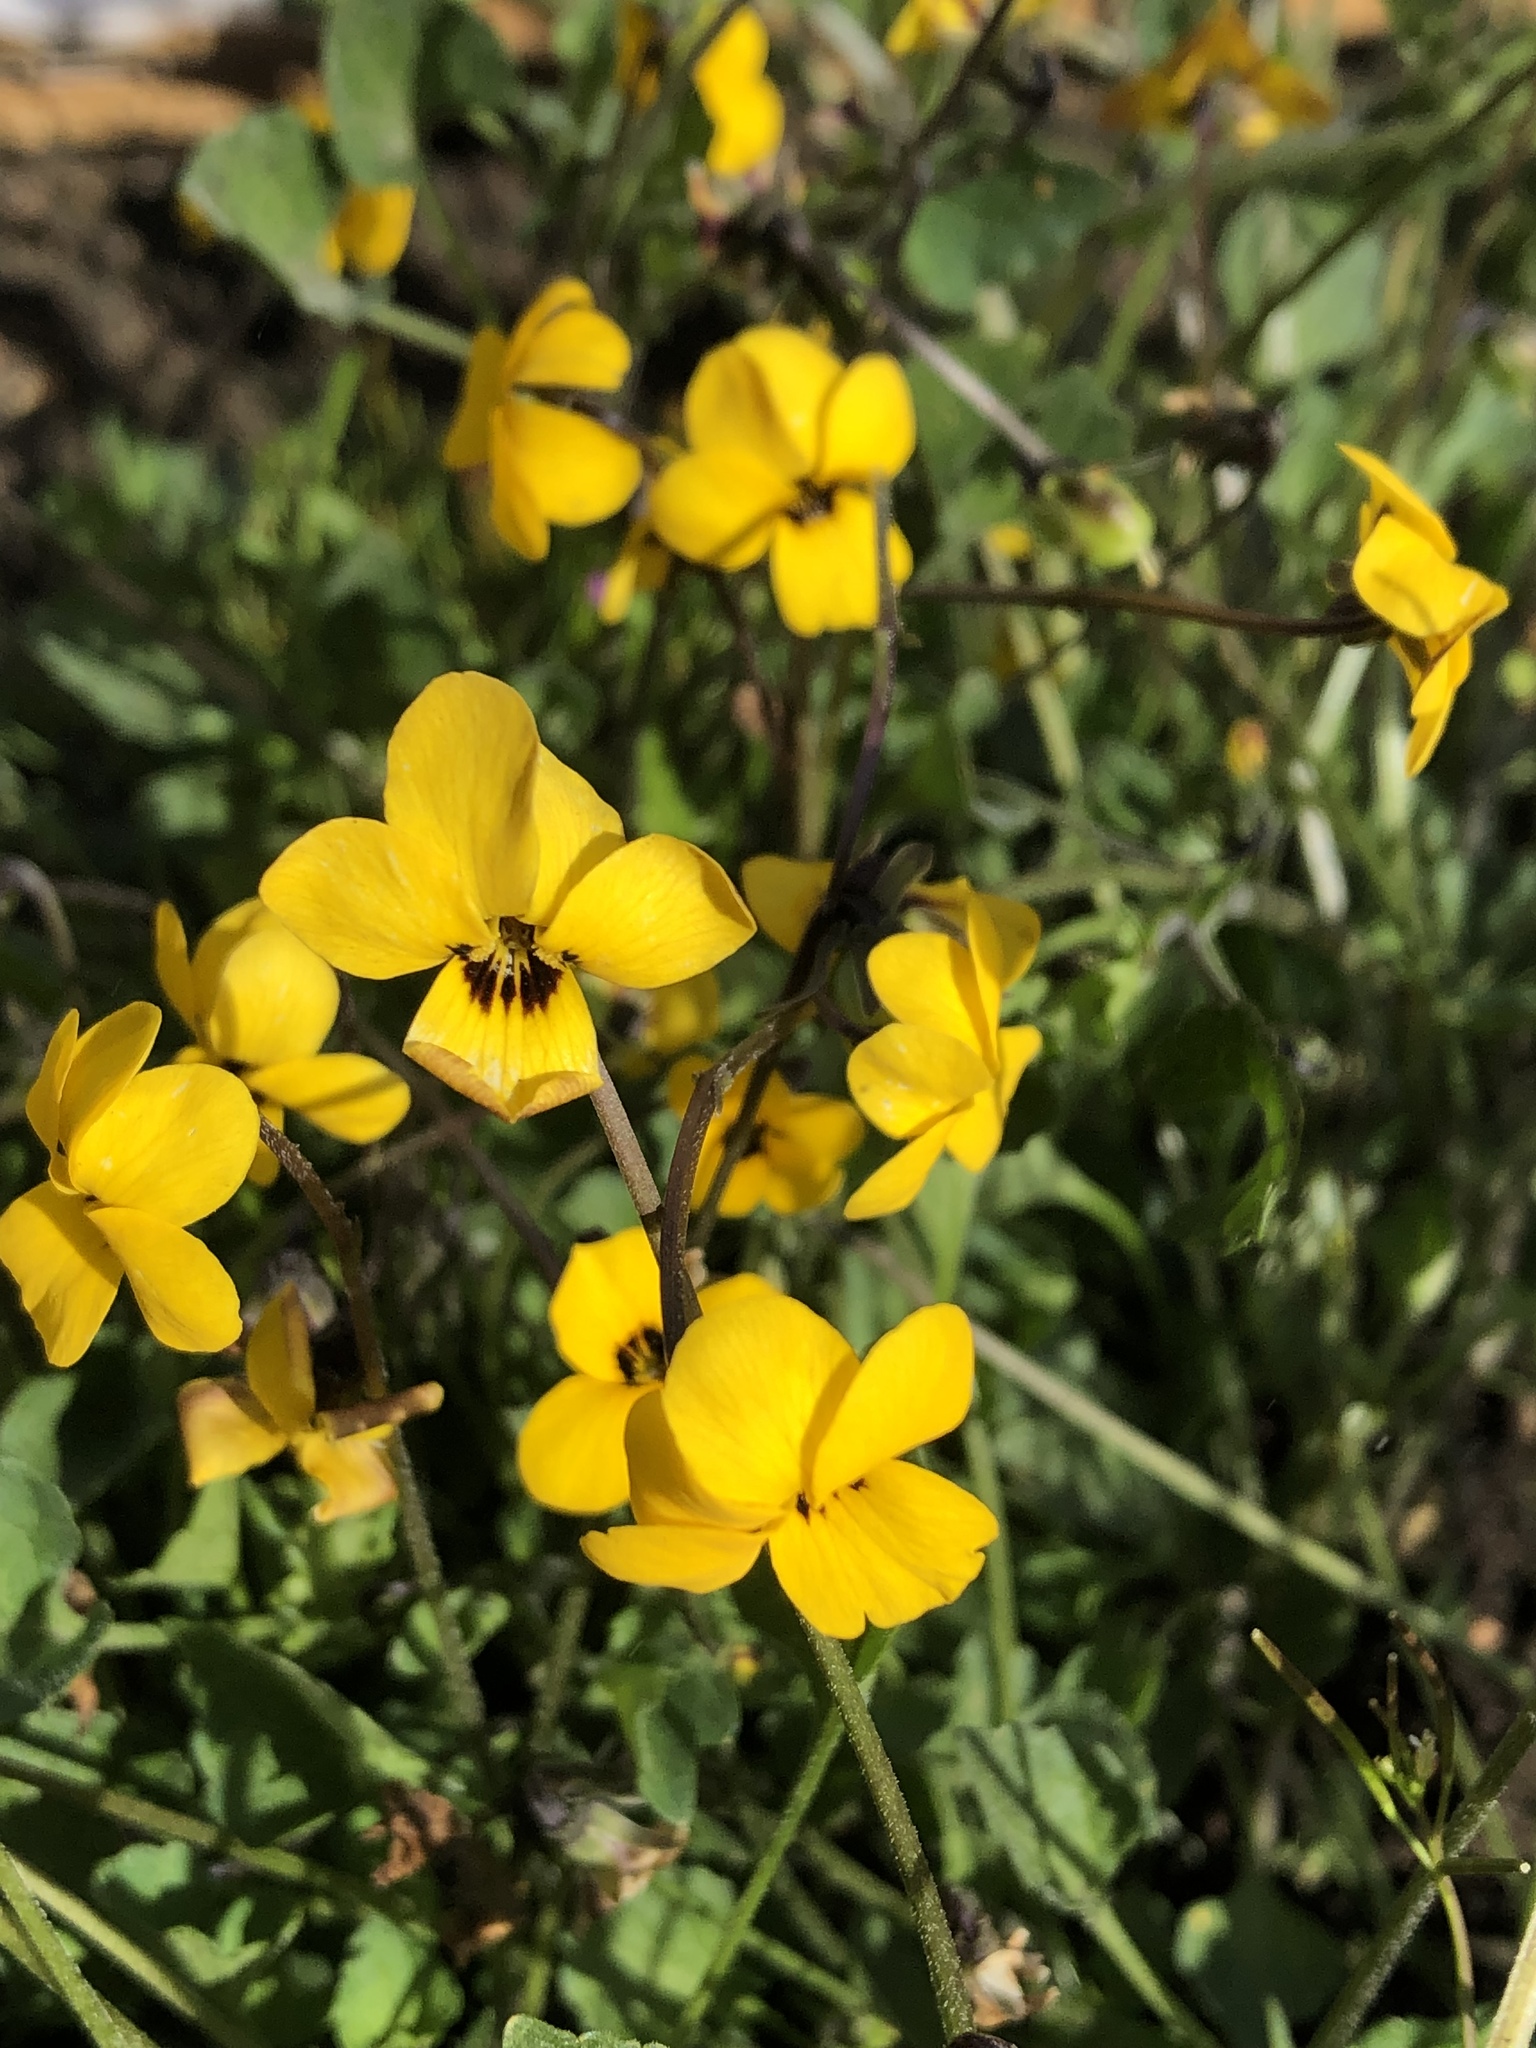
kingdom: Plantae
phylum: Tracheophyta
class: Magnoliopsida
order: Malpighiales
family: Violaceae
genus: Viola
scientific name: Viola pedunculata
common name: California golden violet
